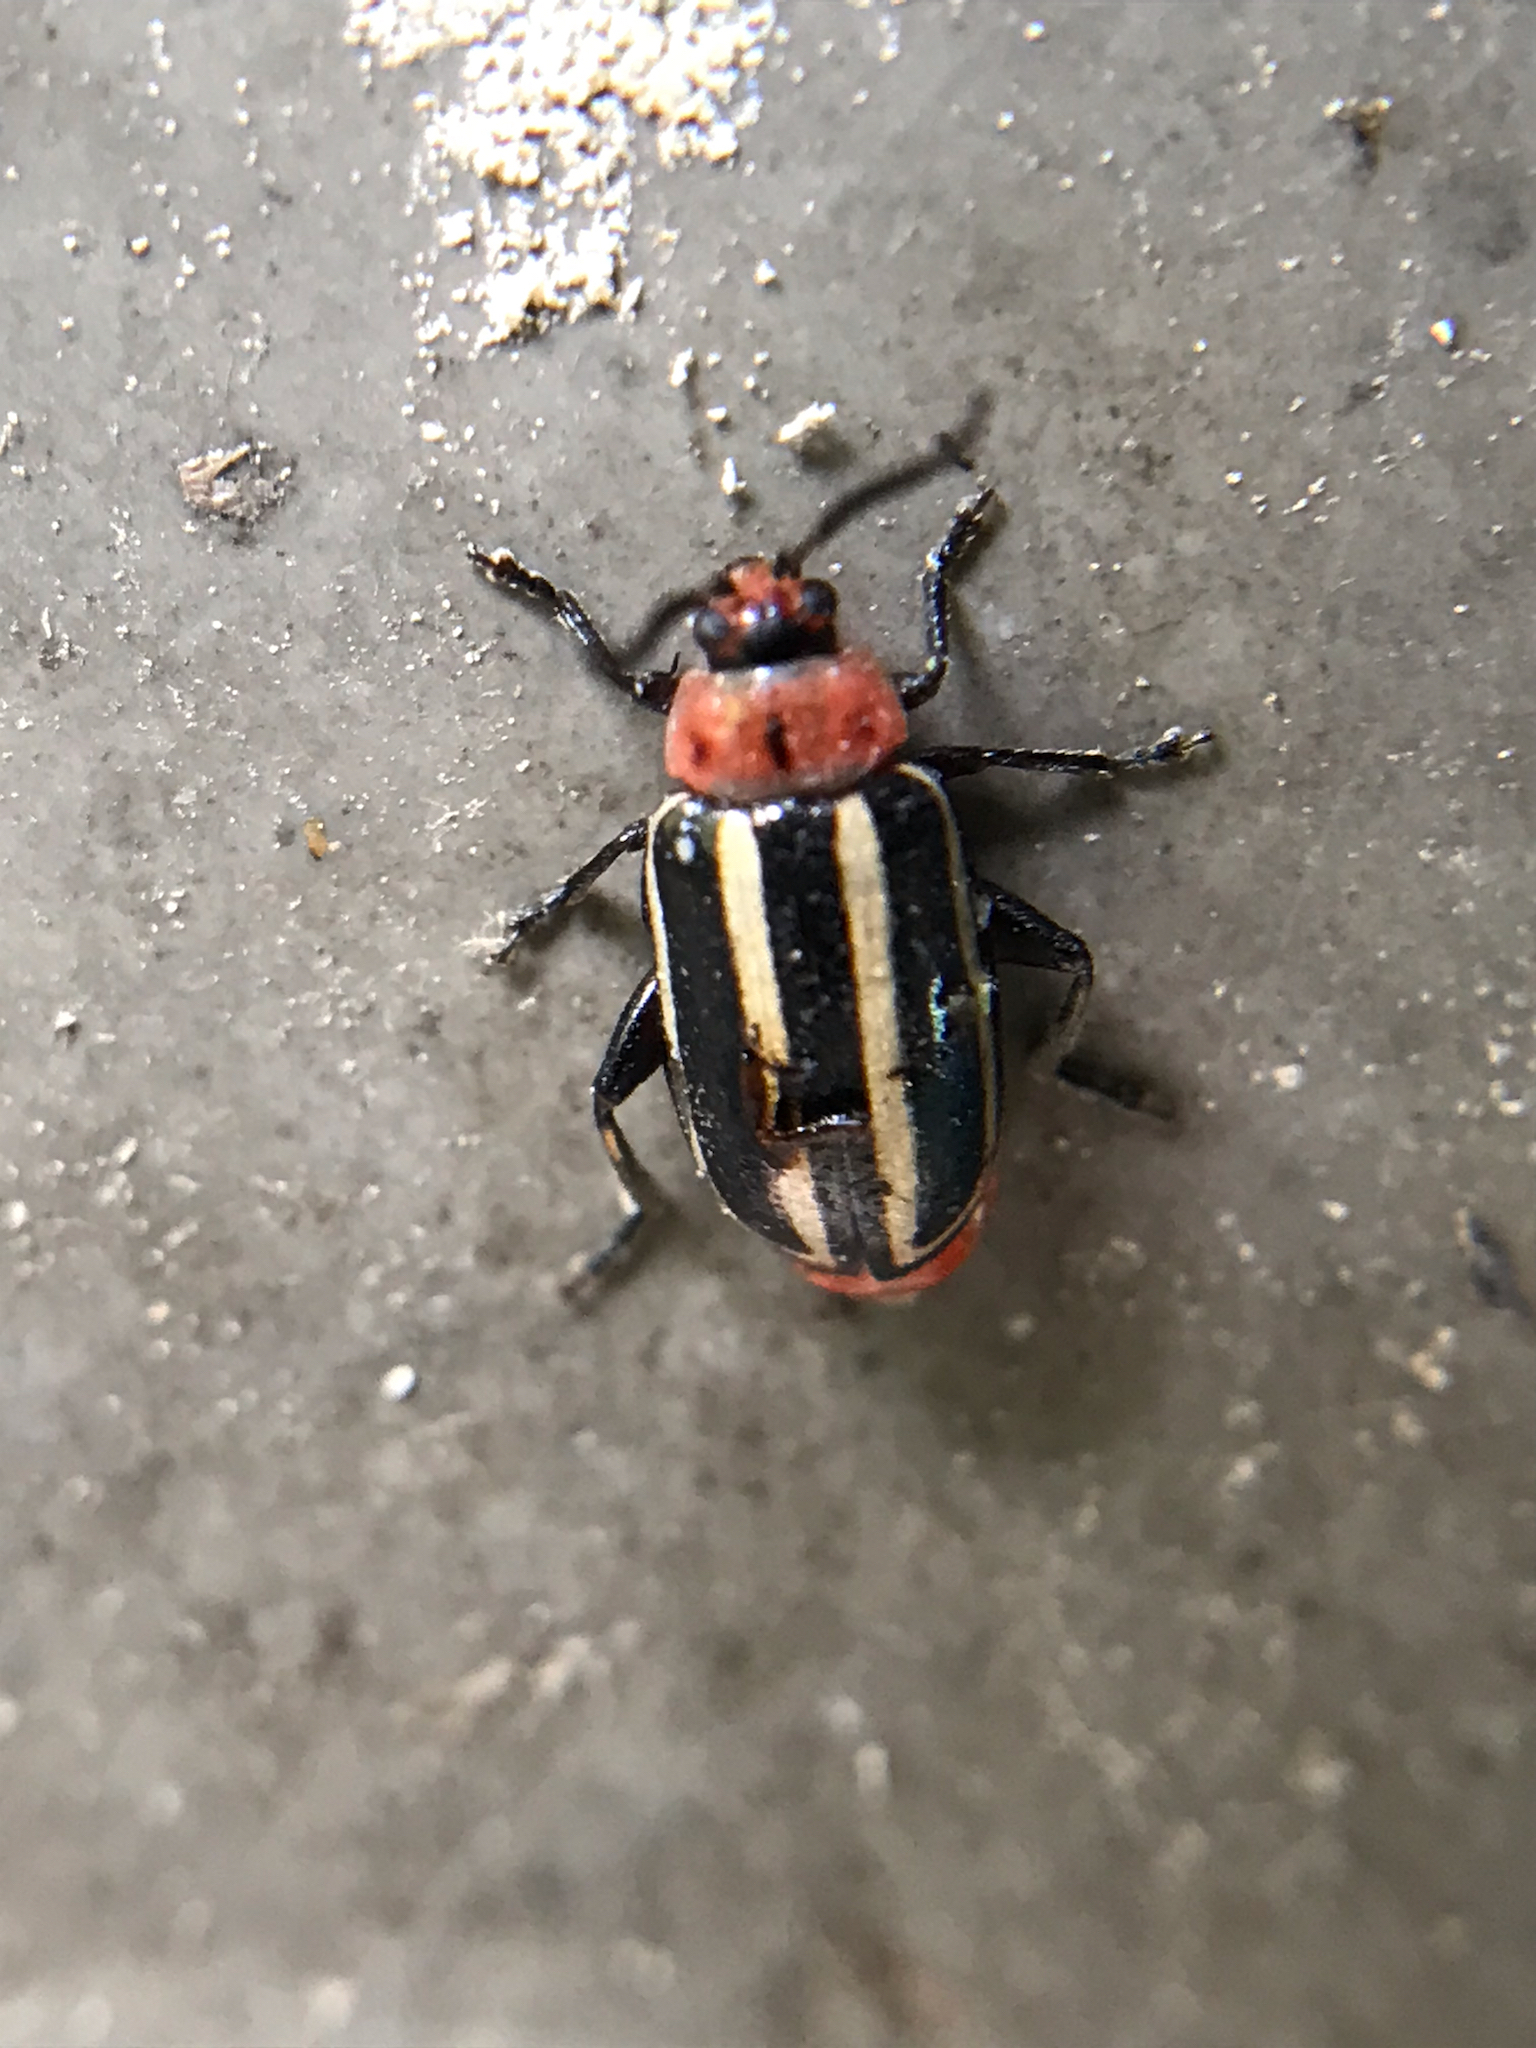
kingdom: Animalia
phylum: Arthropoda
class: Insecta
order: Coleoptera
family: Chrysomelidae
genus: Disonycha
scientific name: Disonycha glabrata
